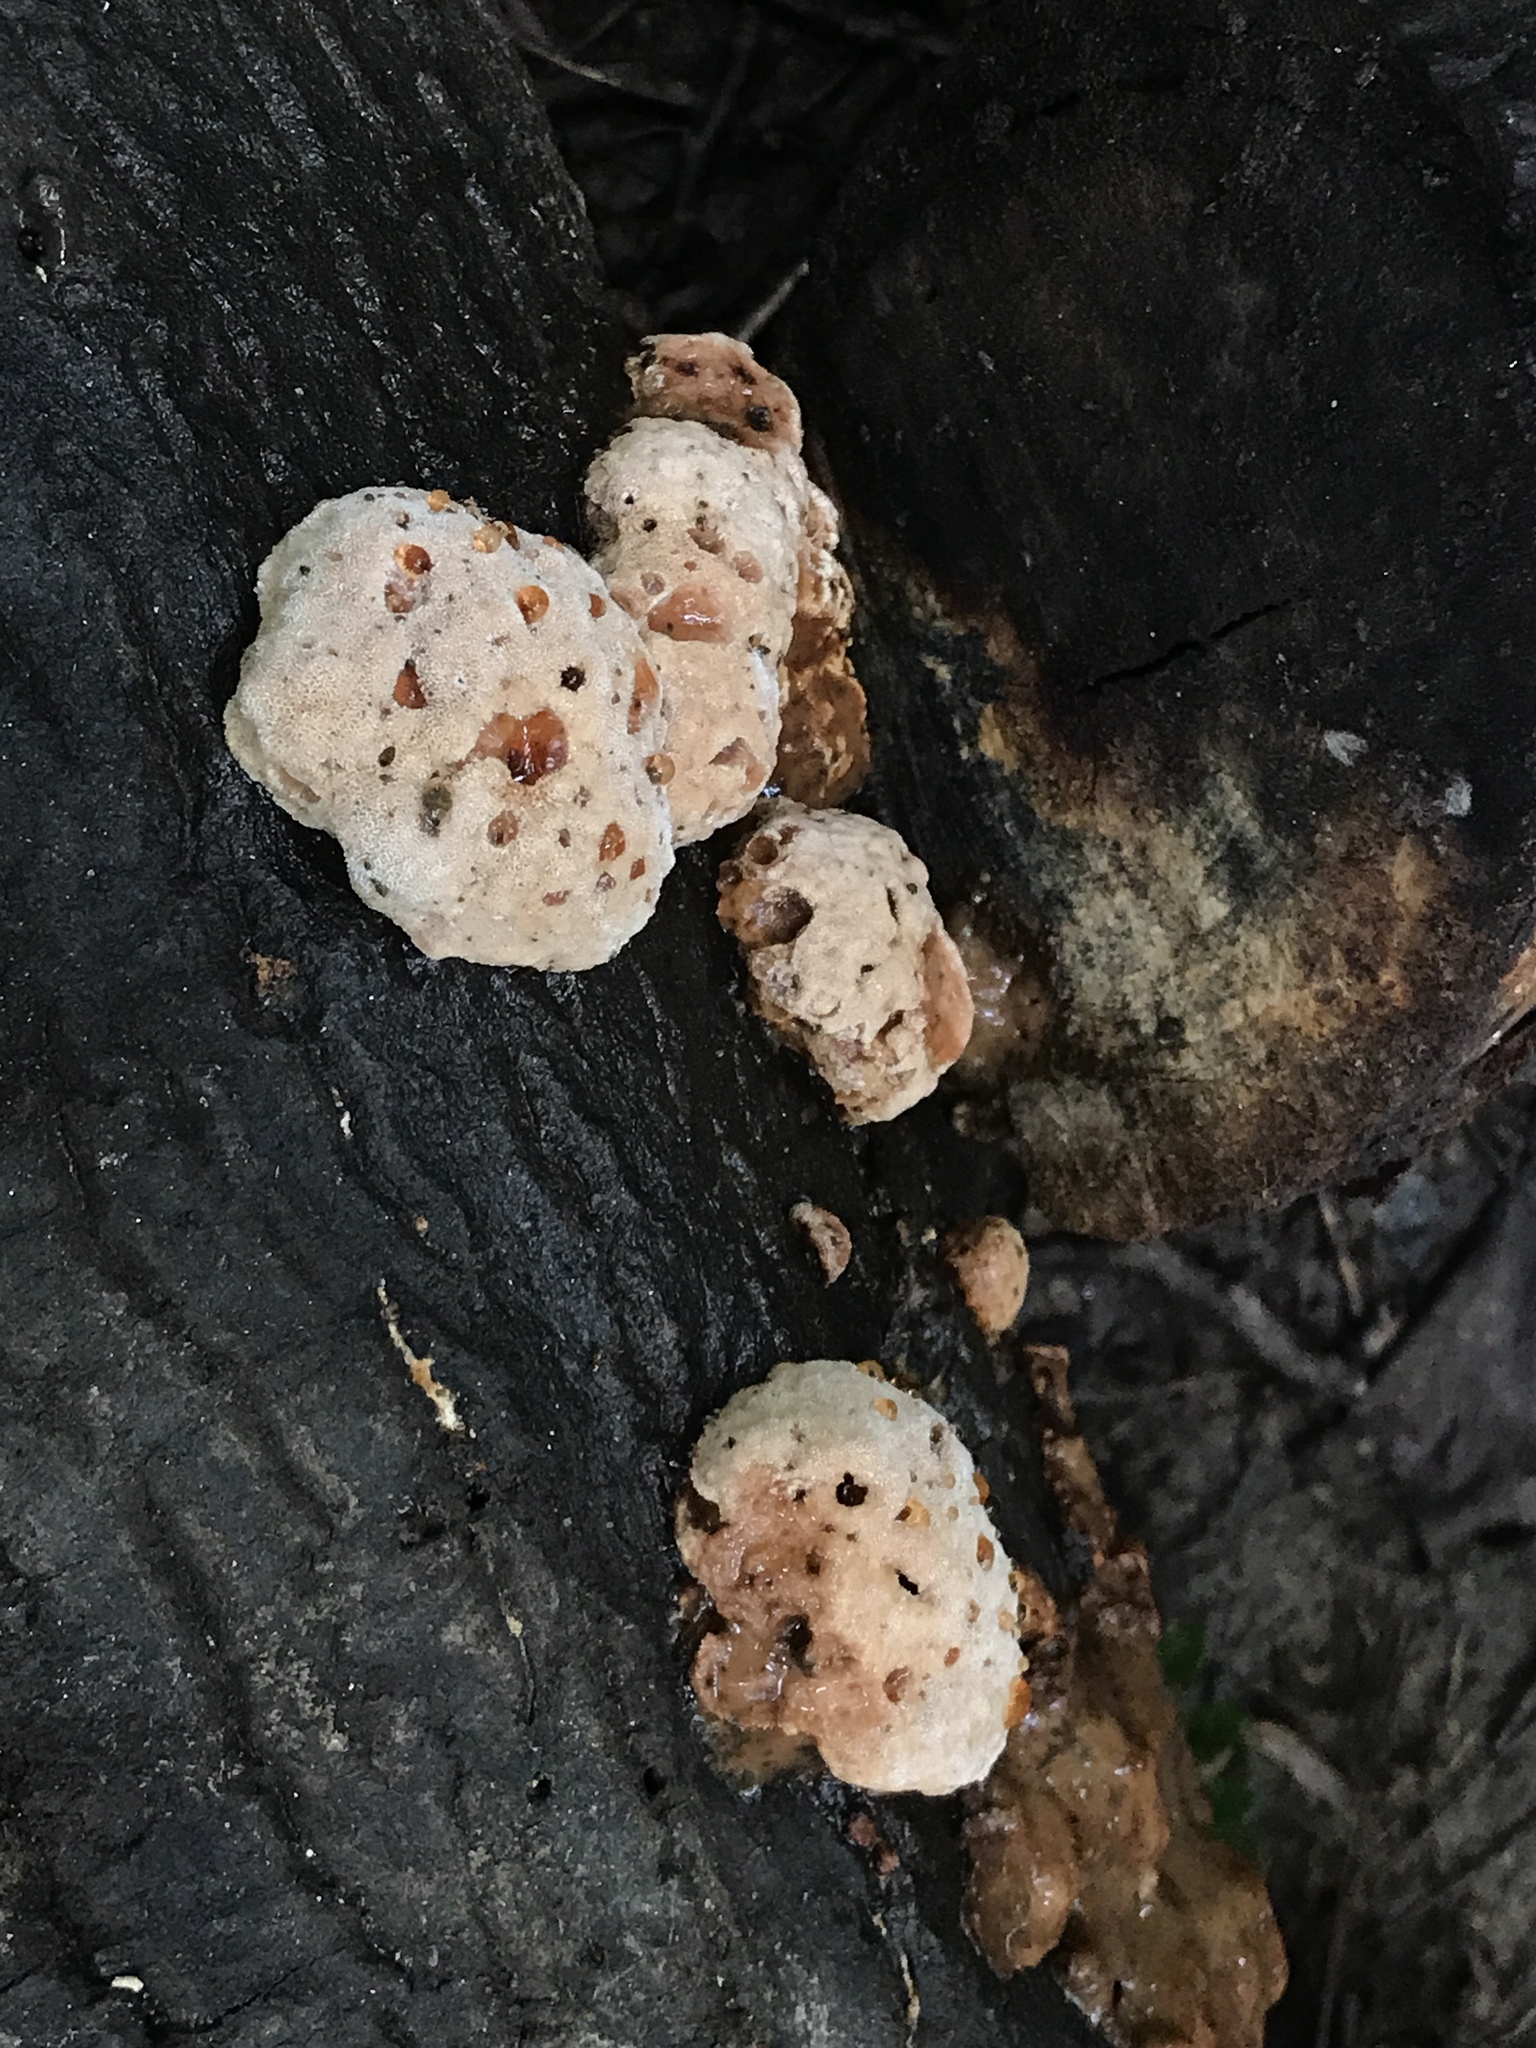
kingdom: Fungi
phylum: Basidiomycota
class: Agaricomycetes
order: Polyporales
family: Podoscyphaceae
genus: Abortiporus
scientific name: Abortiporus biennis
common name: Blushing rosette
